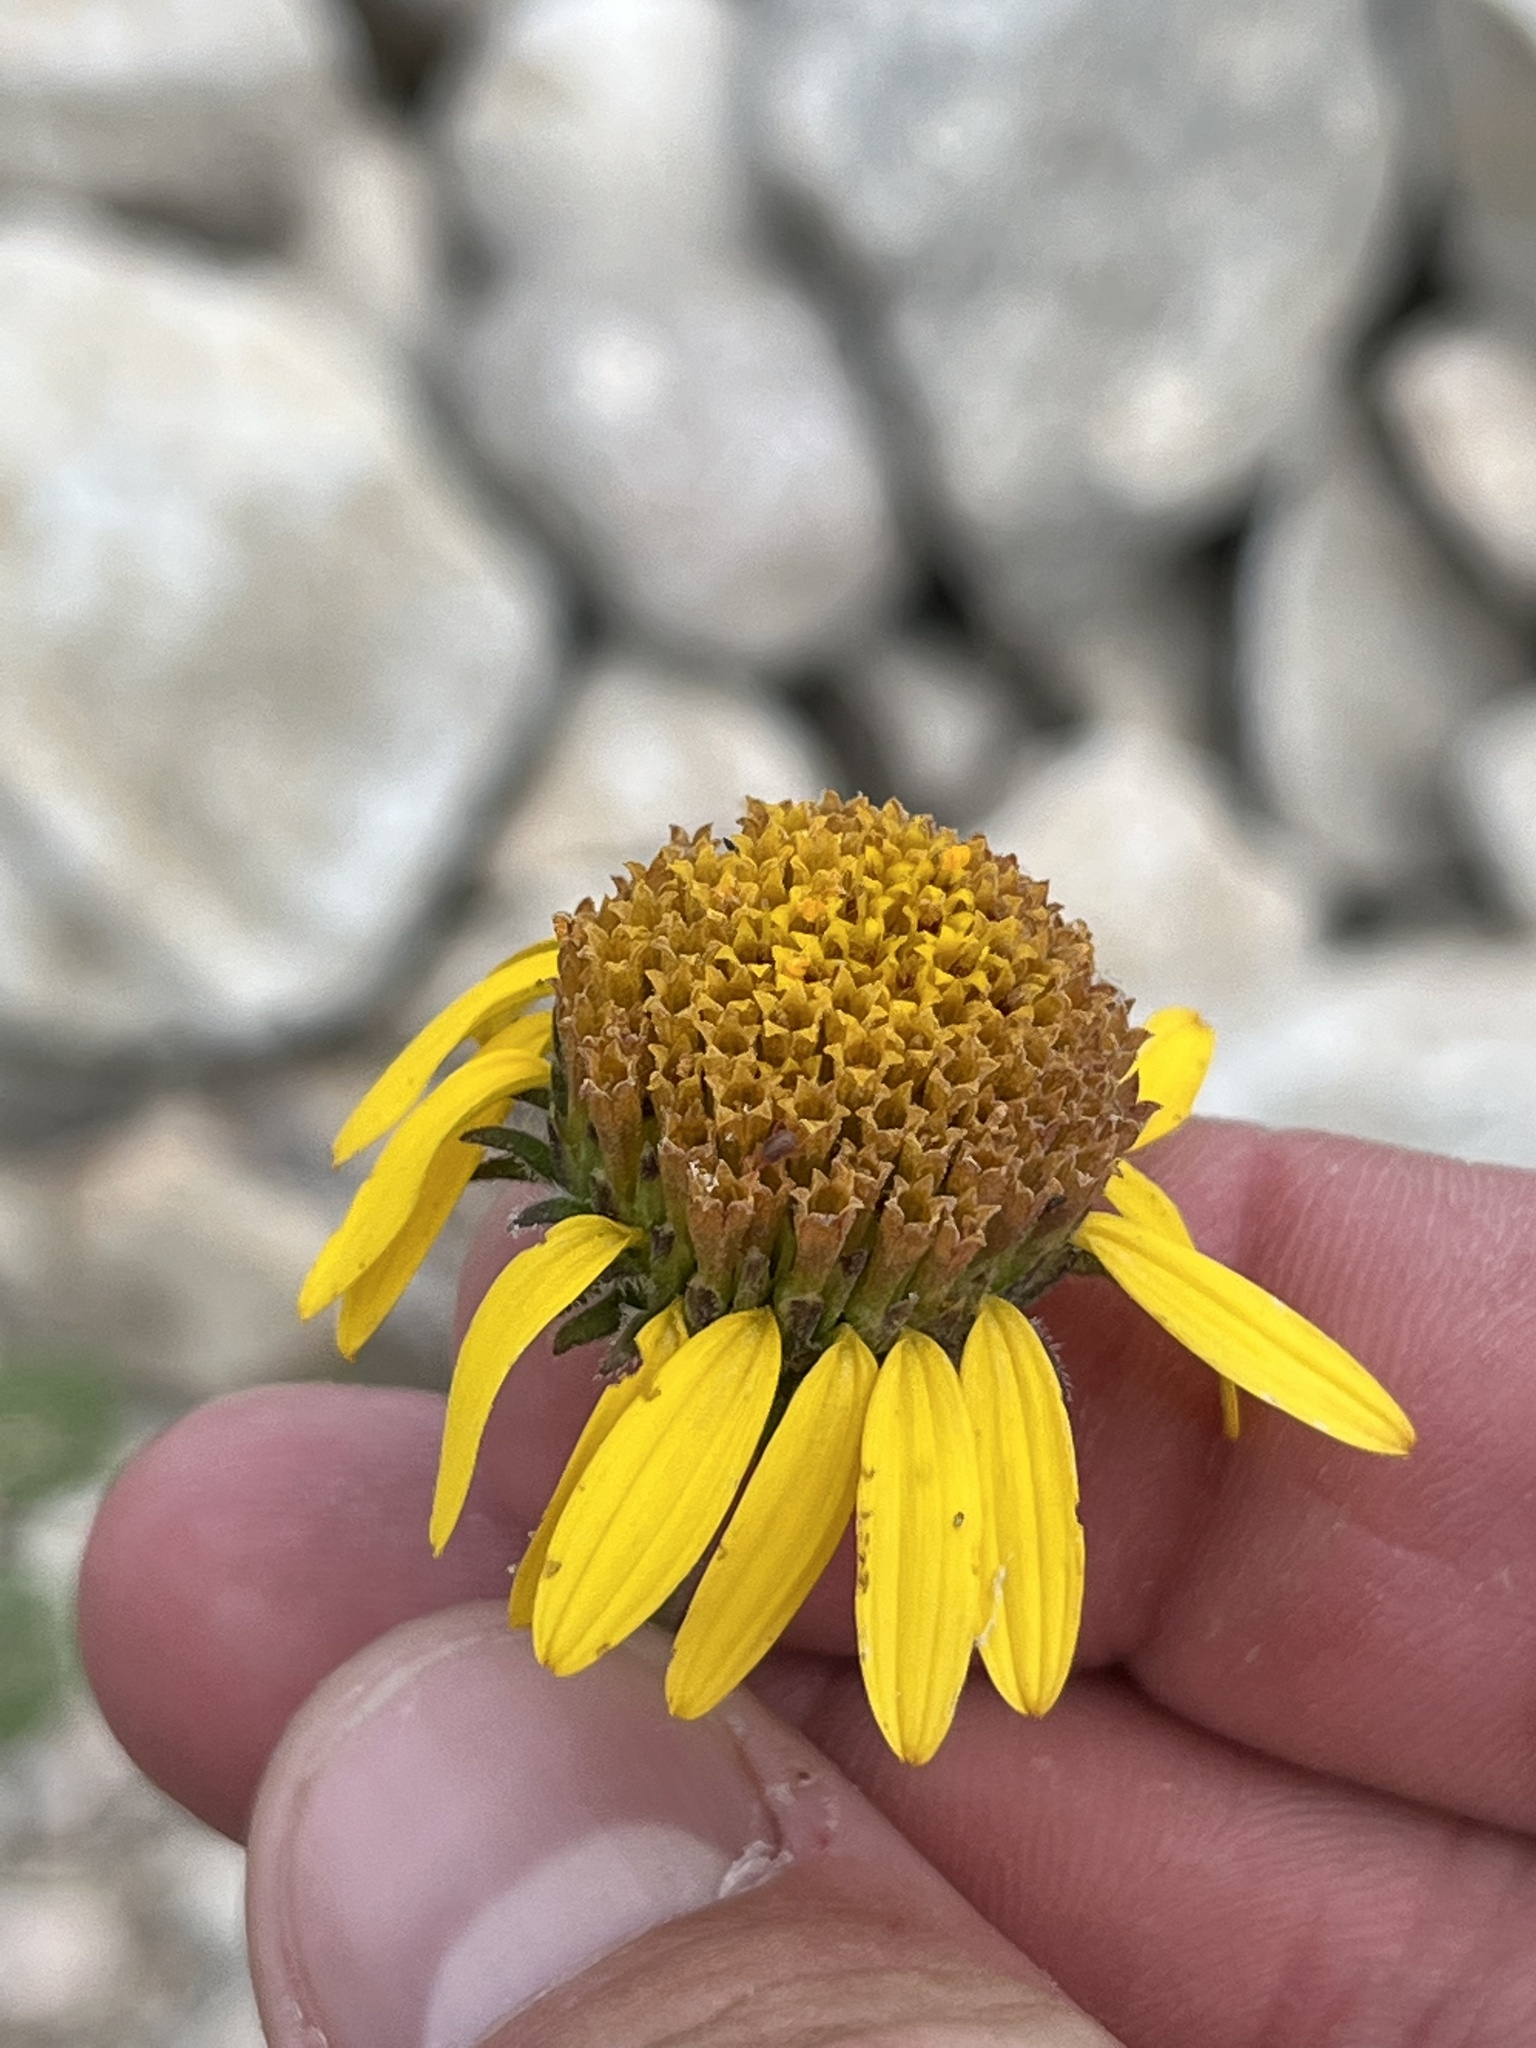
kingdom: Plantae
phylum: Tracheophyta
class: Magnoliopsida
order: Asterales
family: Asteraceae
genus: Simsia
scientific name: Simsia calva
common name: Awnless bush-sunflower
